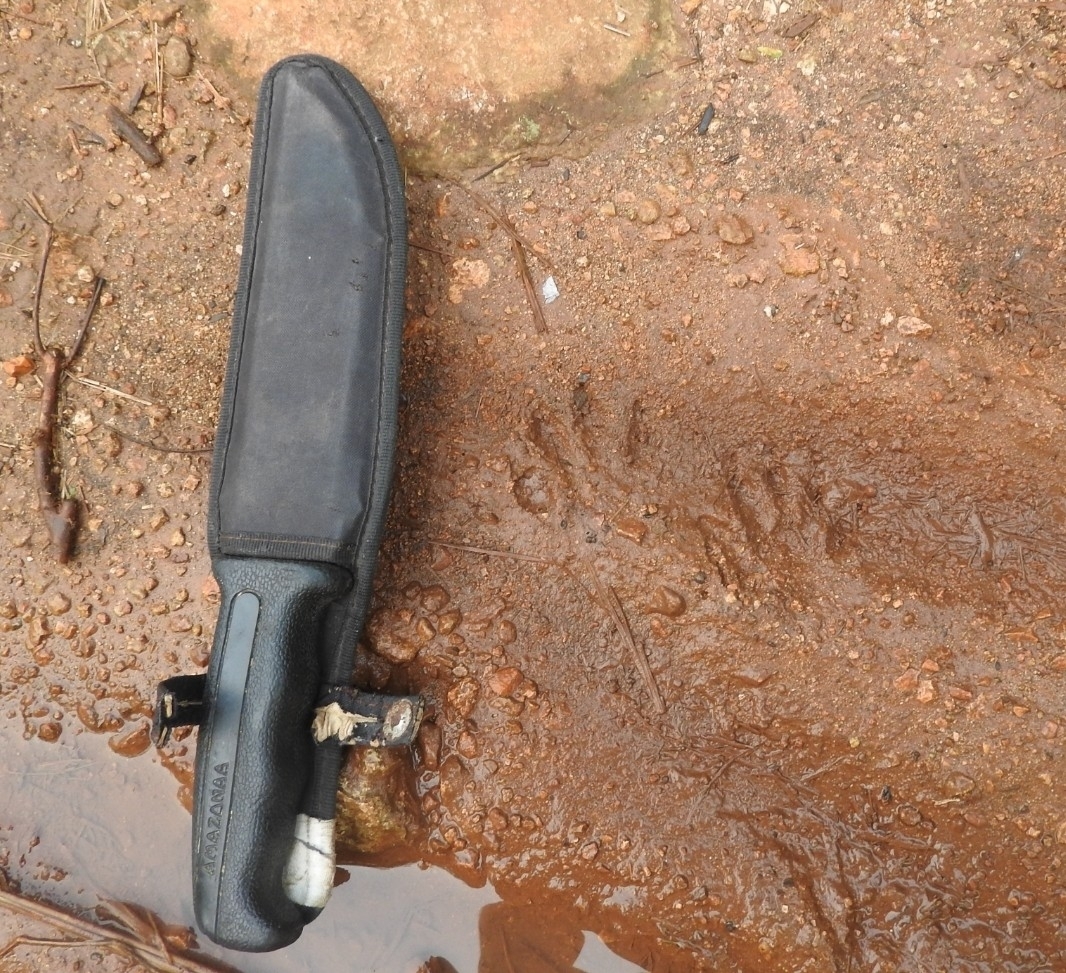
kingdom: Animalia
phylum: Chordata
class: Mammalia
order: Rodentia
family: Cuniculidae
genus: Cuniculus
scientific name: Cuniculus paca
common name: Lowland paca
